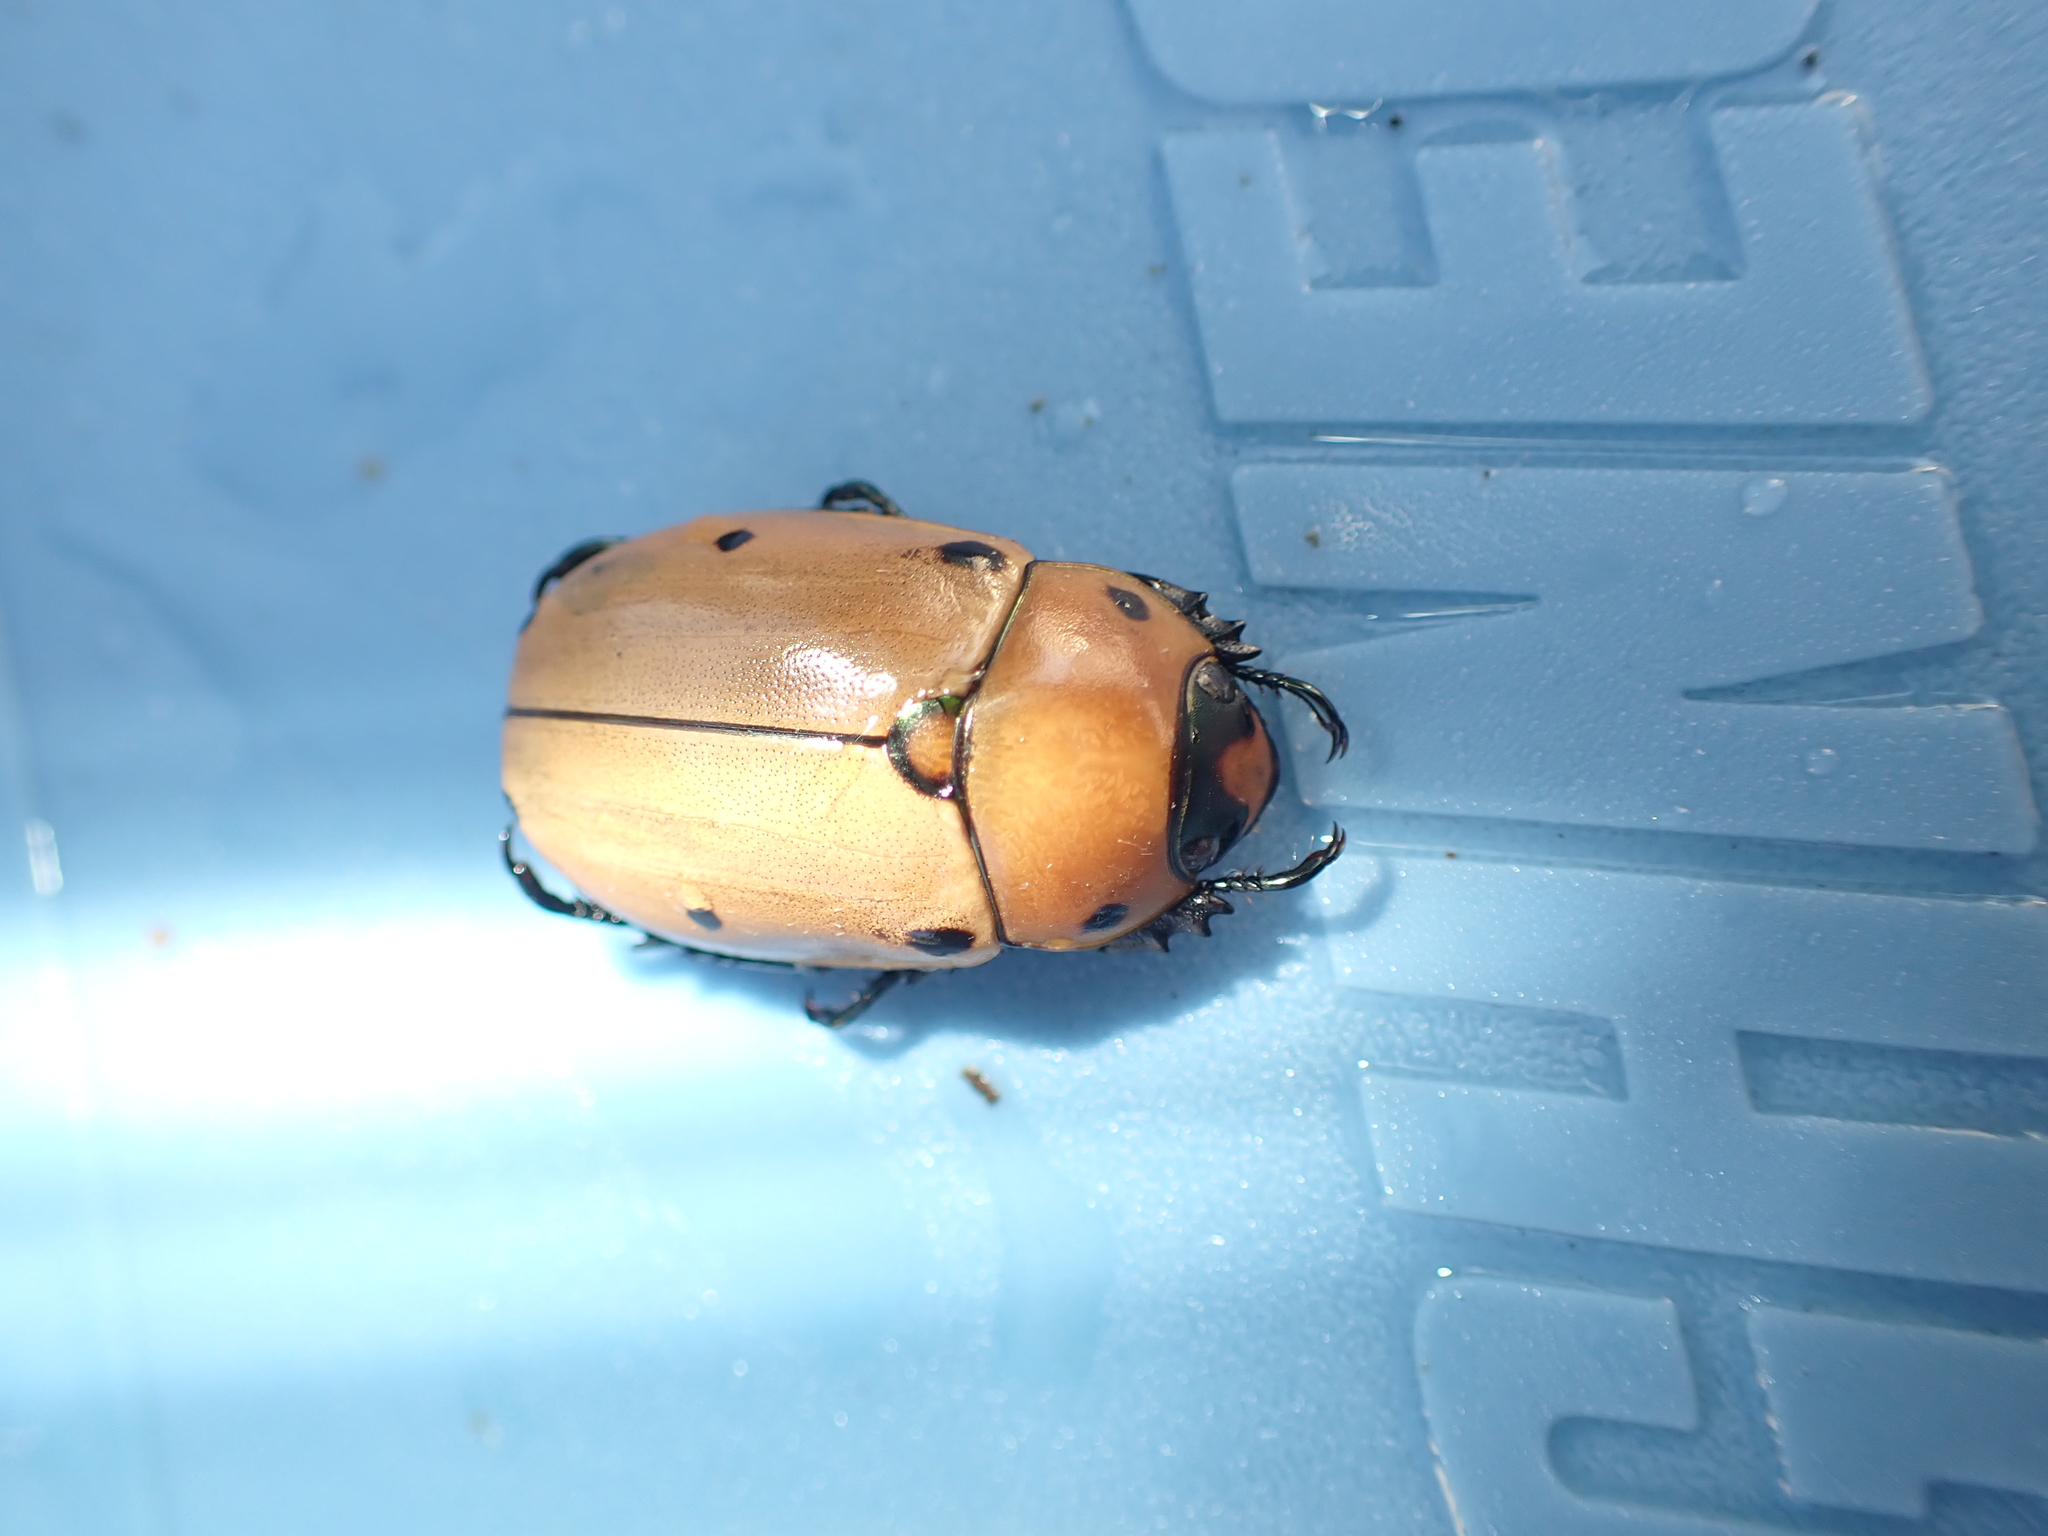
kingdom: Animalia
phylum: Arthropoda
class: Insecta
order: Coleoptera
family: Scarabaeidae
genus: Pelidnota
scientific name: Pelidnota punctata
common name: Grapevine beetle
